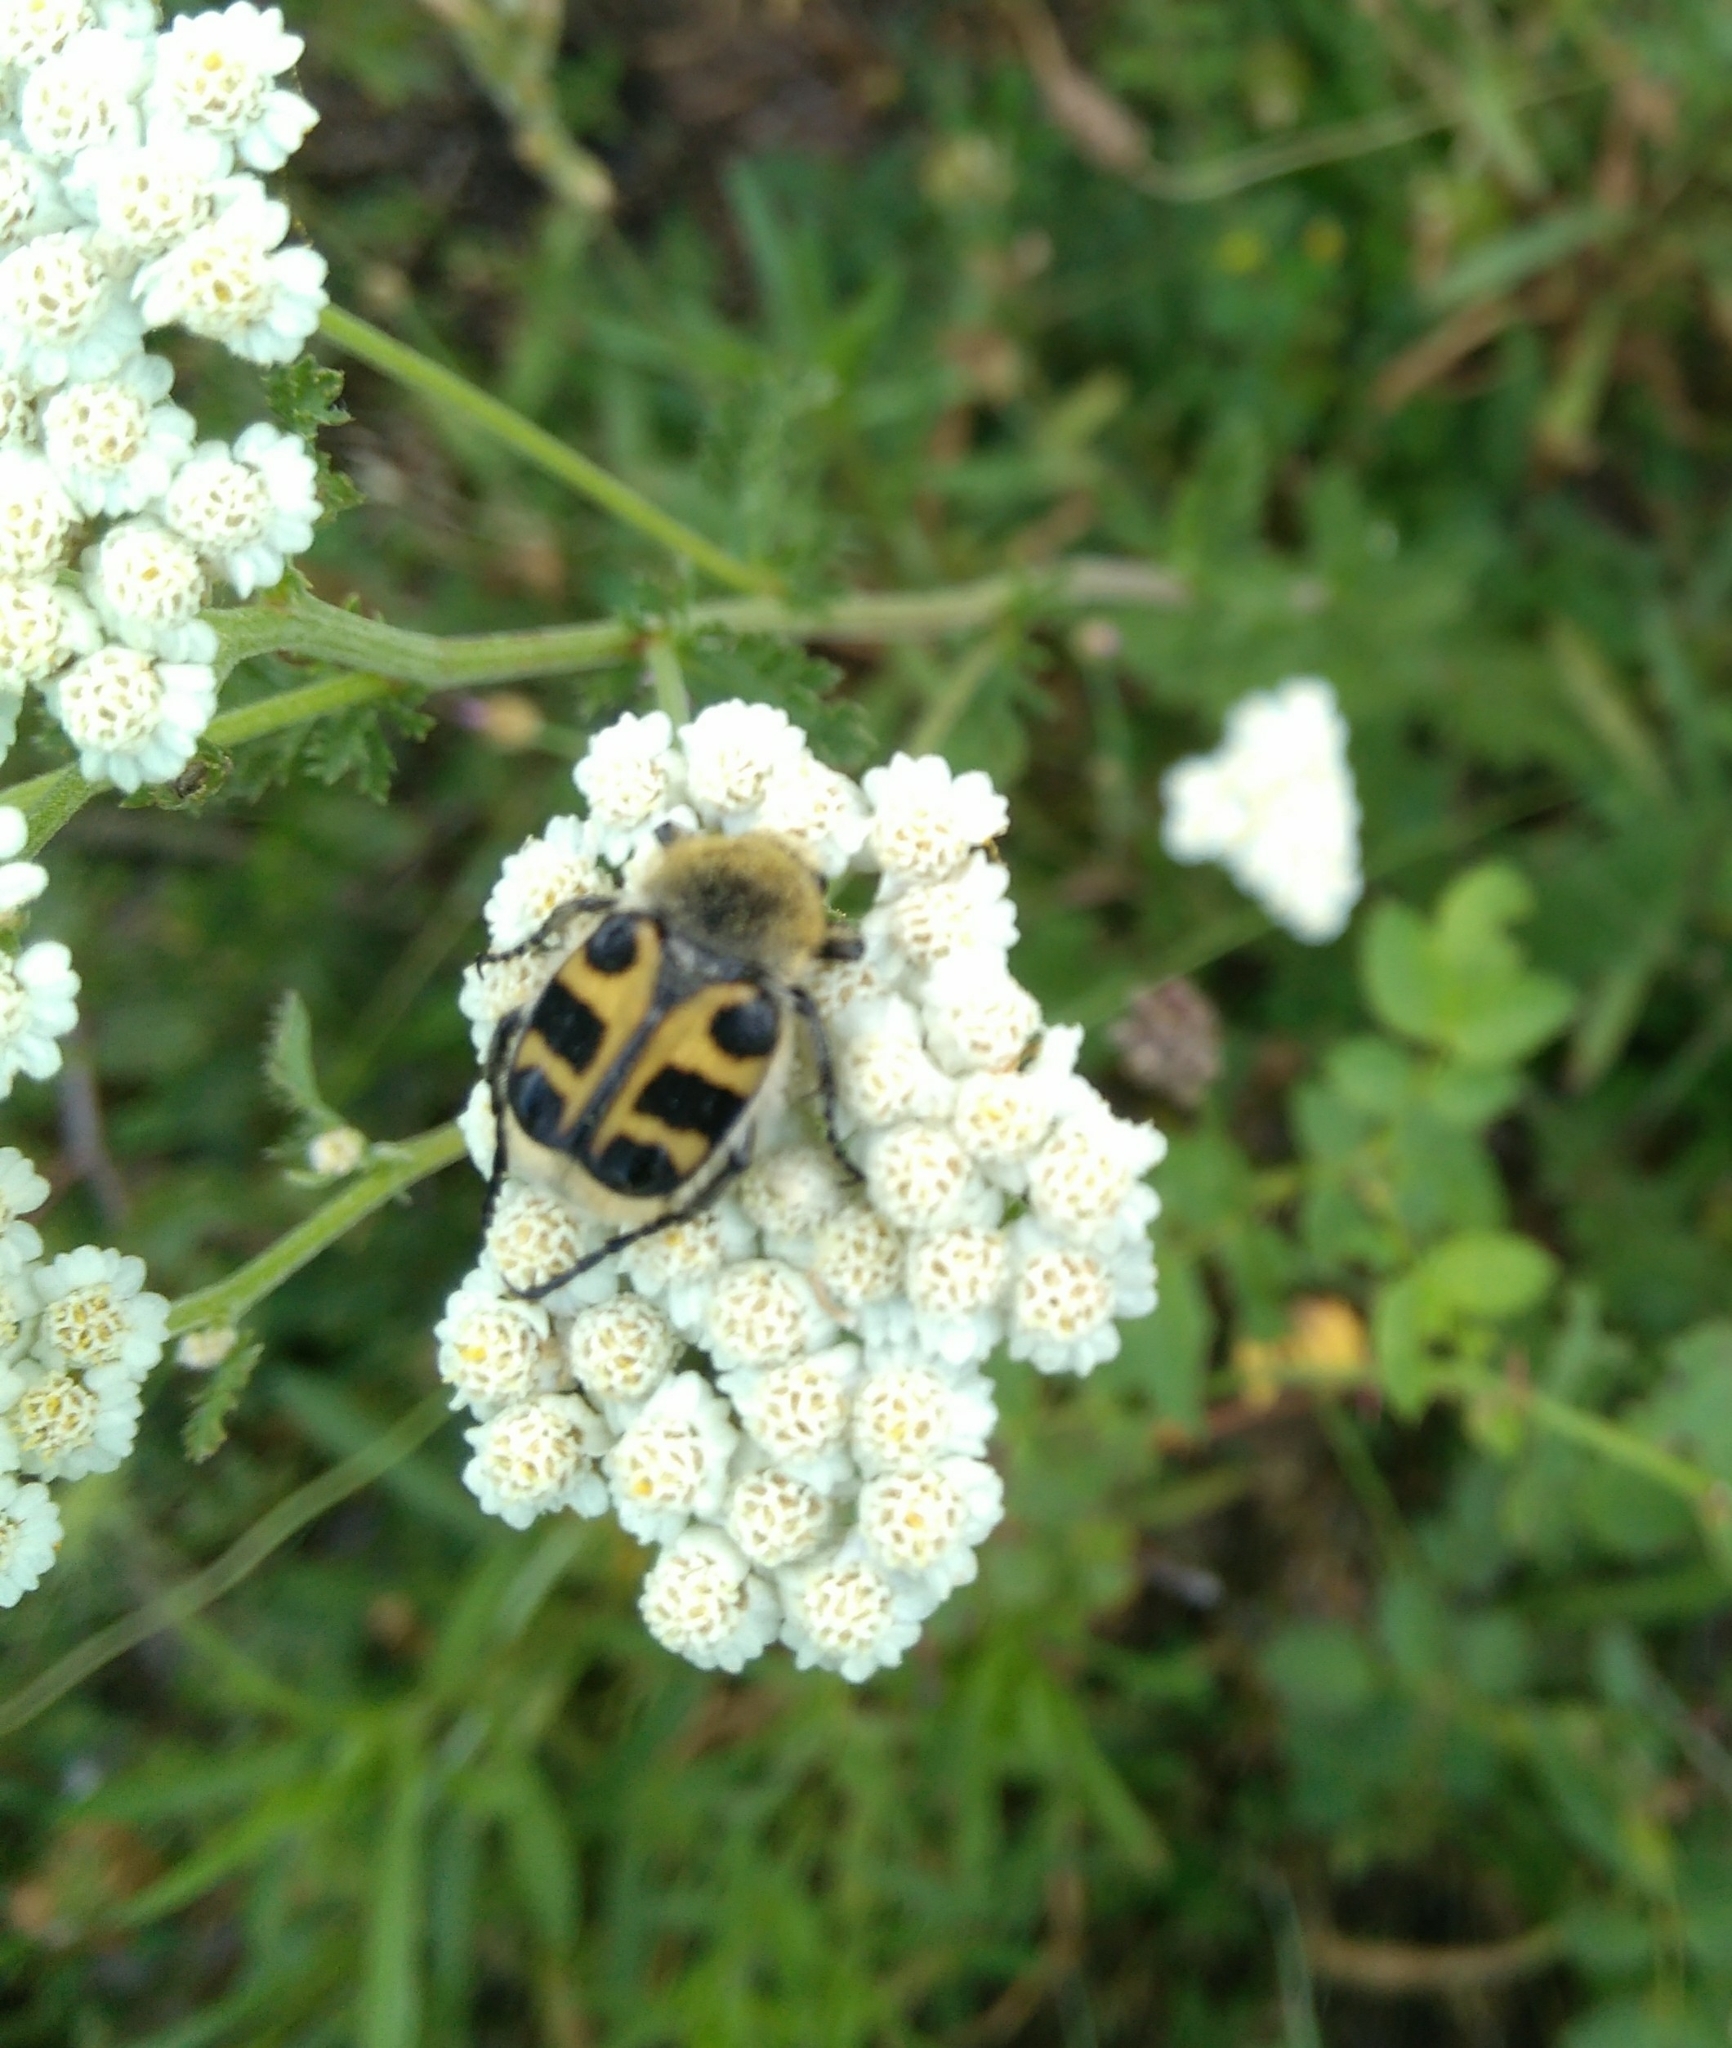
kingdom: Animalia
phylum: Arthropoda
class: Insecta
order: Coleoptera
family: Scarabaeidae
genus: Trichius
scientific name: Trichius gallicus
